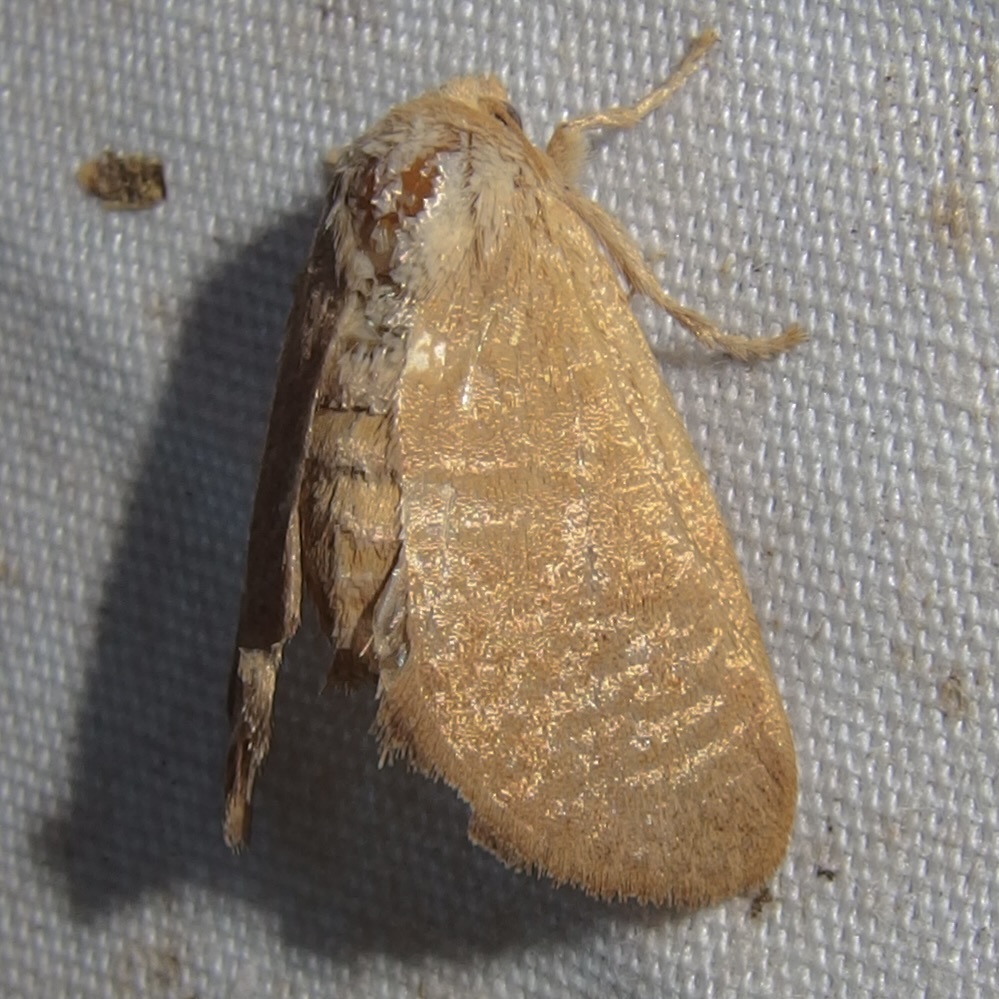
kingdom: Animalia
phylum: Arthropoda
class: Insecta
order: Lepidoptera
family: Limacodidae
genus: Isa
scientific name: Isa schaefferana
